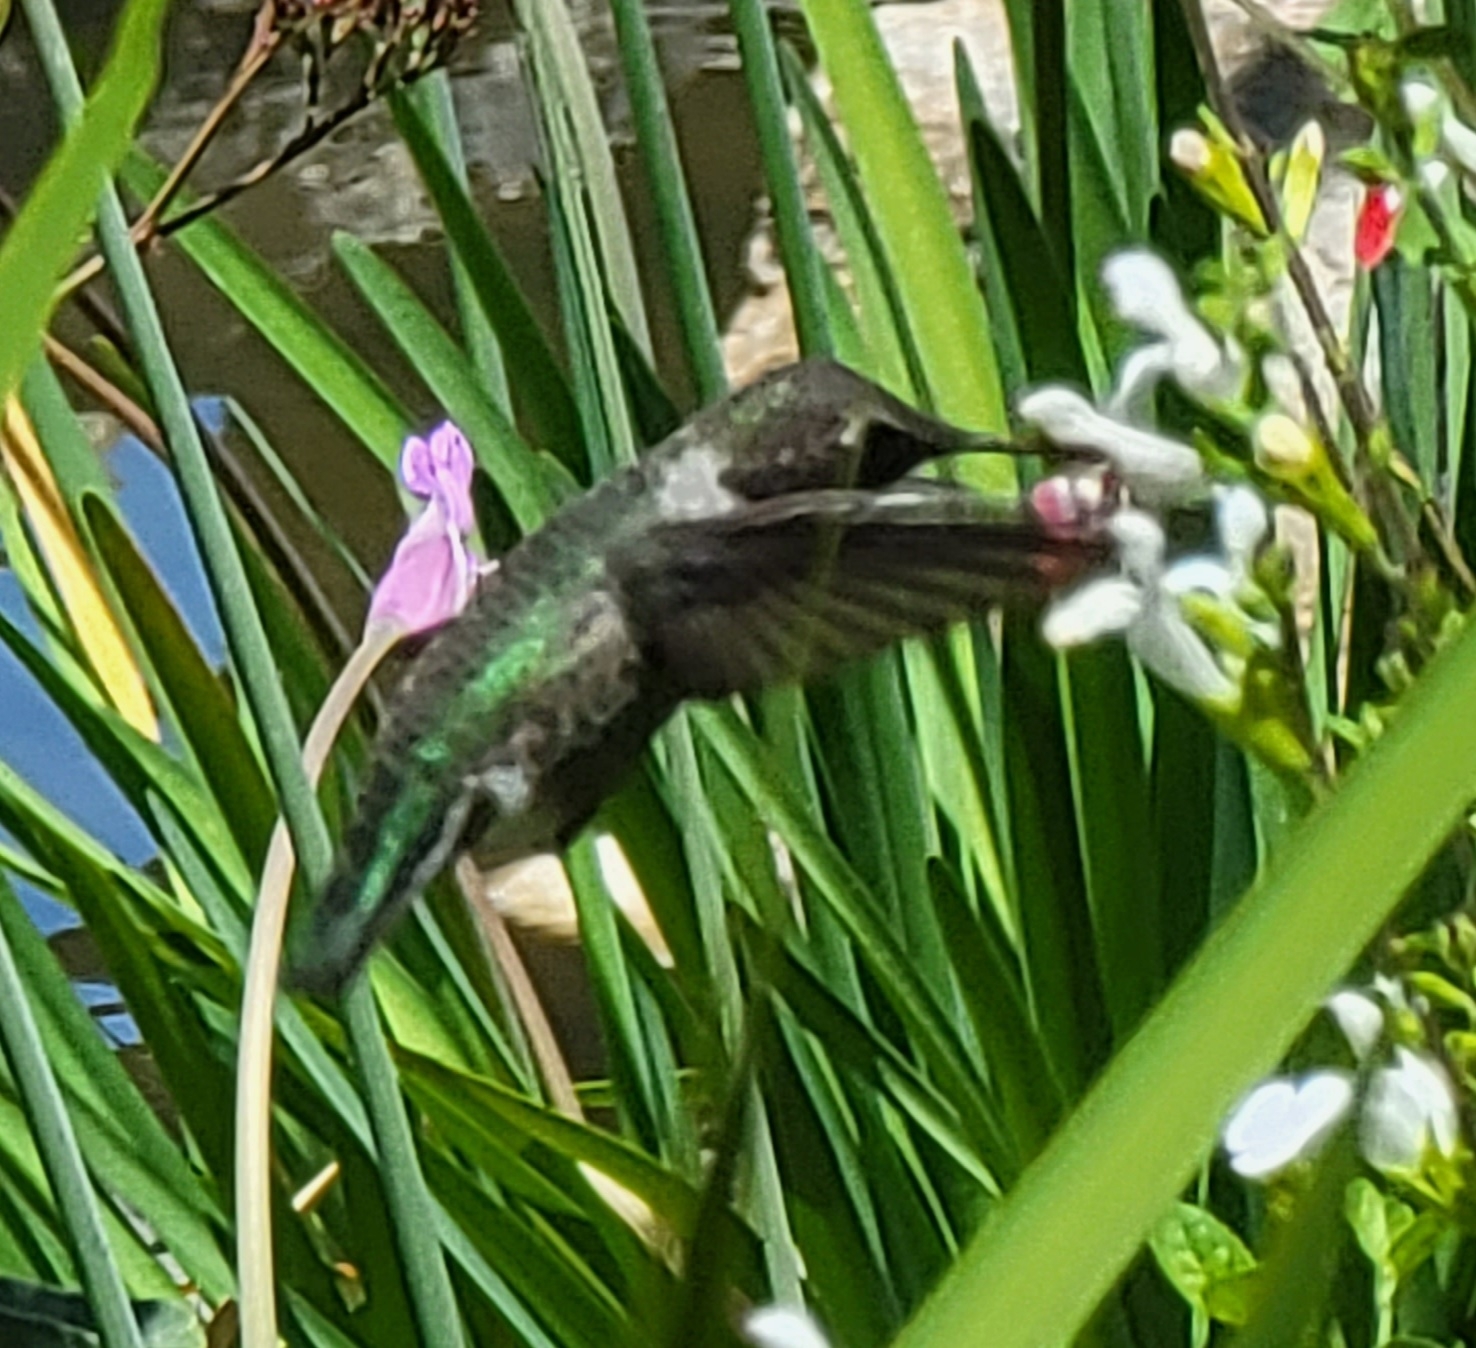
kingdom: Animalia
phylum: Chordata
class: Aves
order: Apodiformes
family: Trochilidae
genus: Calypte
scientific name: Calypte anna
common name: Anna's hummingbird
